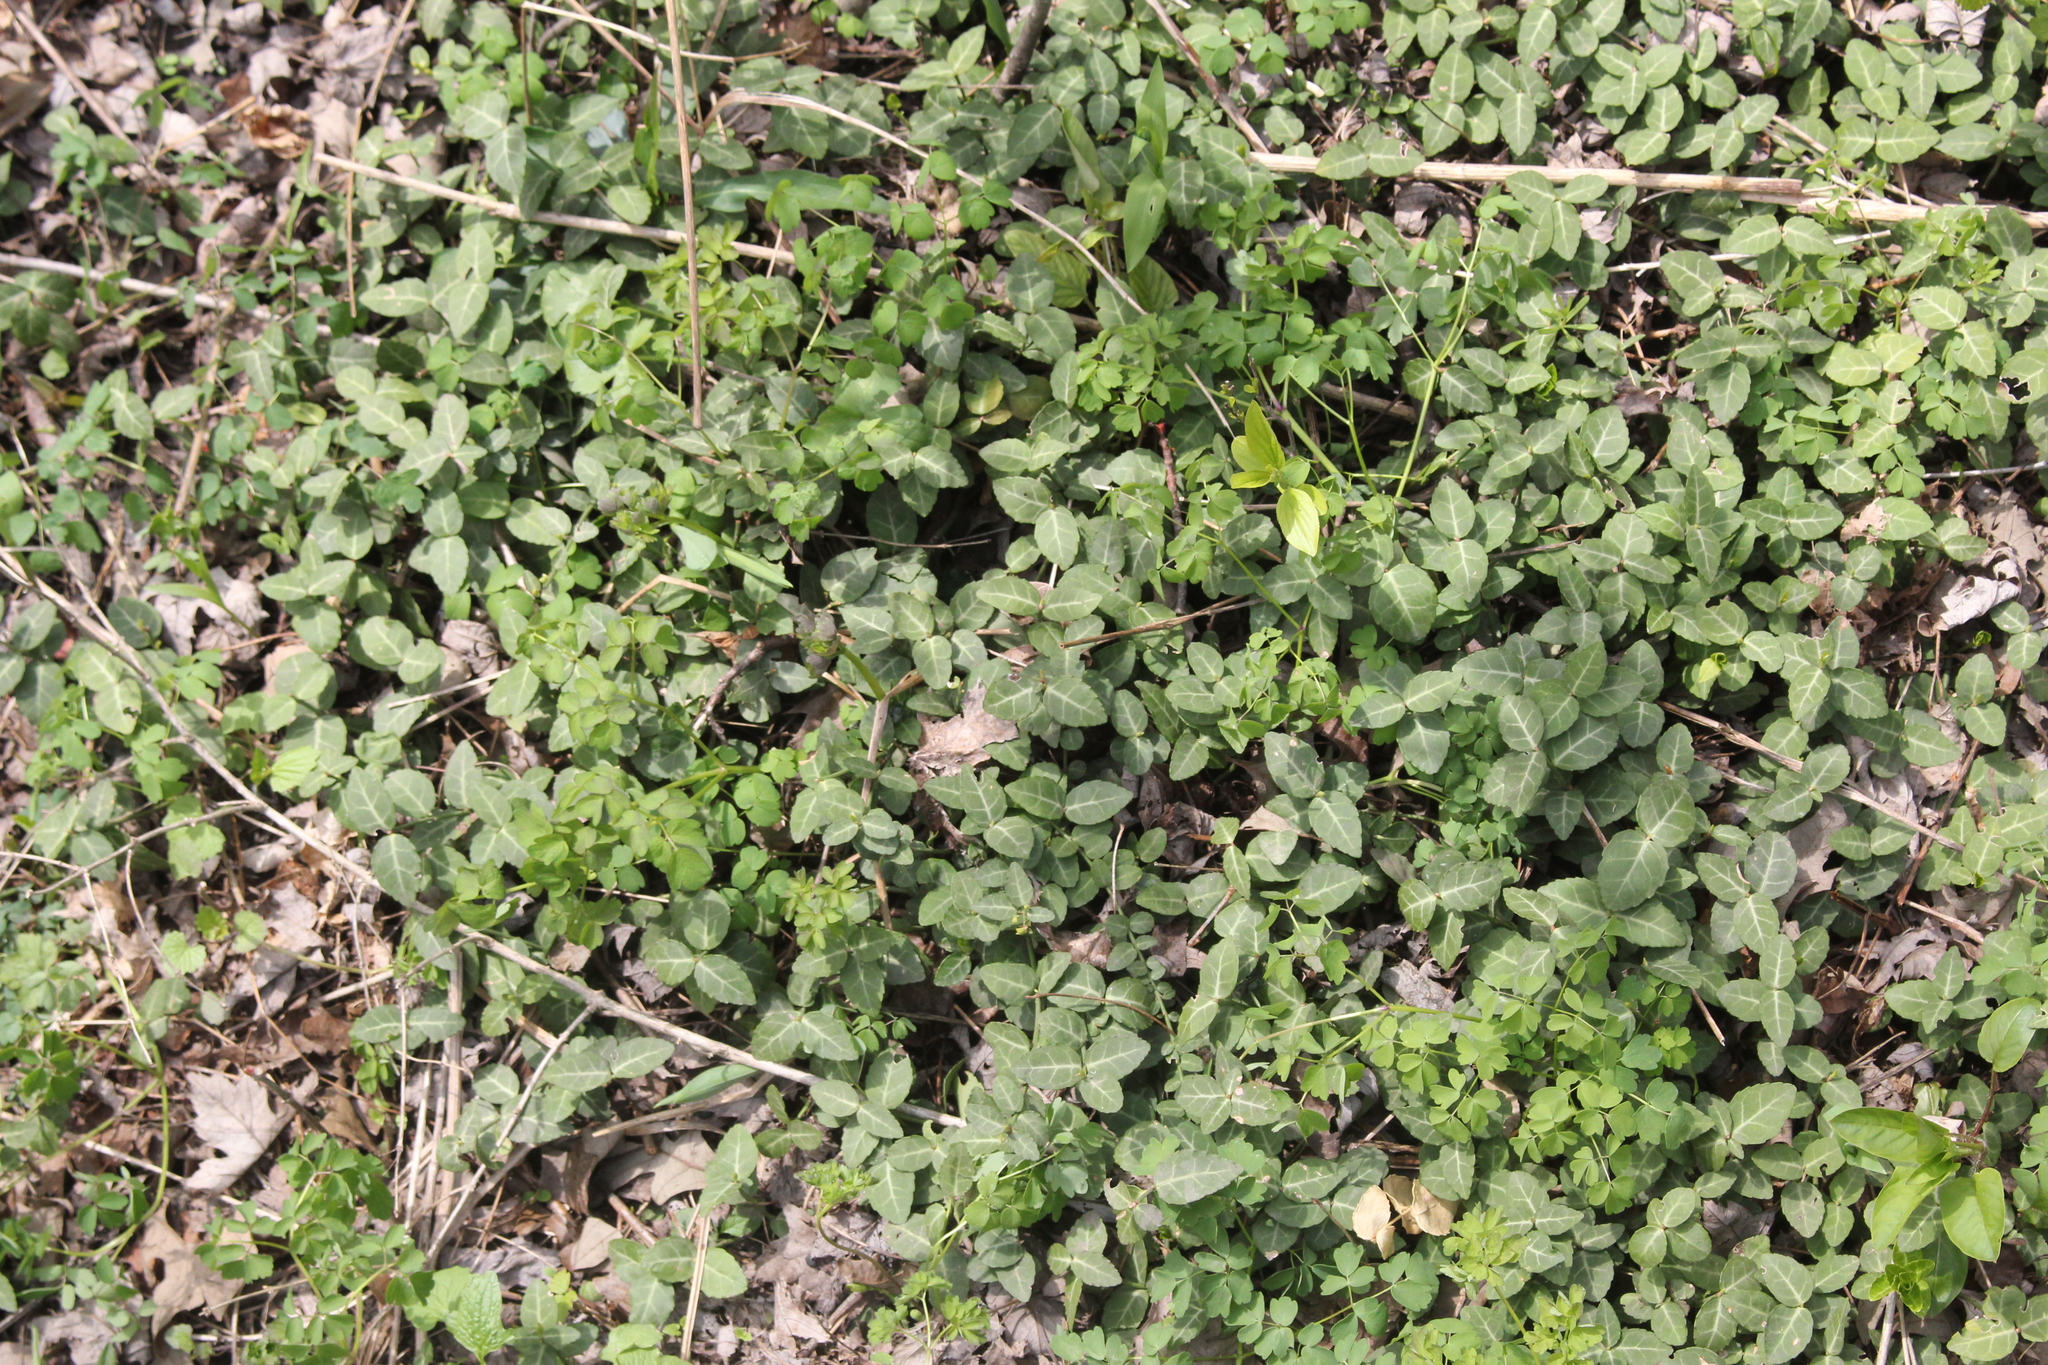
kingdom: Plantae
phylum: Tracheophyta
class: Magnoliopsida
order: Celastrales
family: Celastraceae
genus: Euonymus
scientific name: Euonymus fortunei
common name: Climbing euonymus
